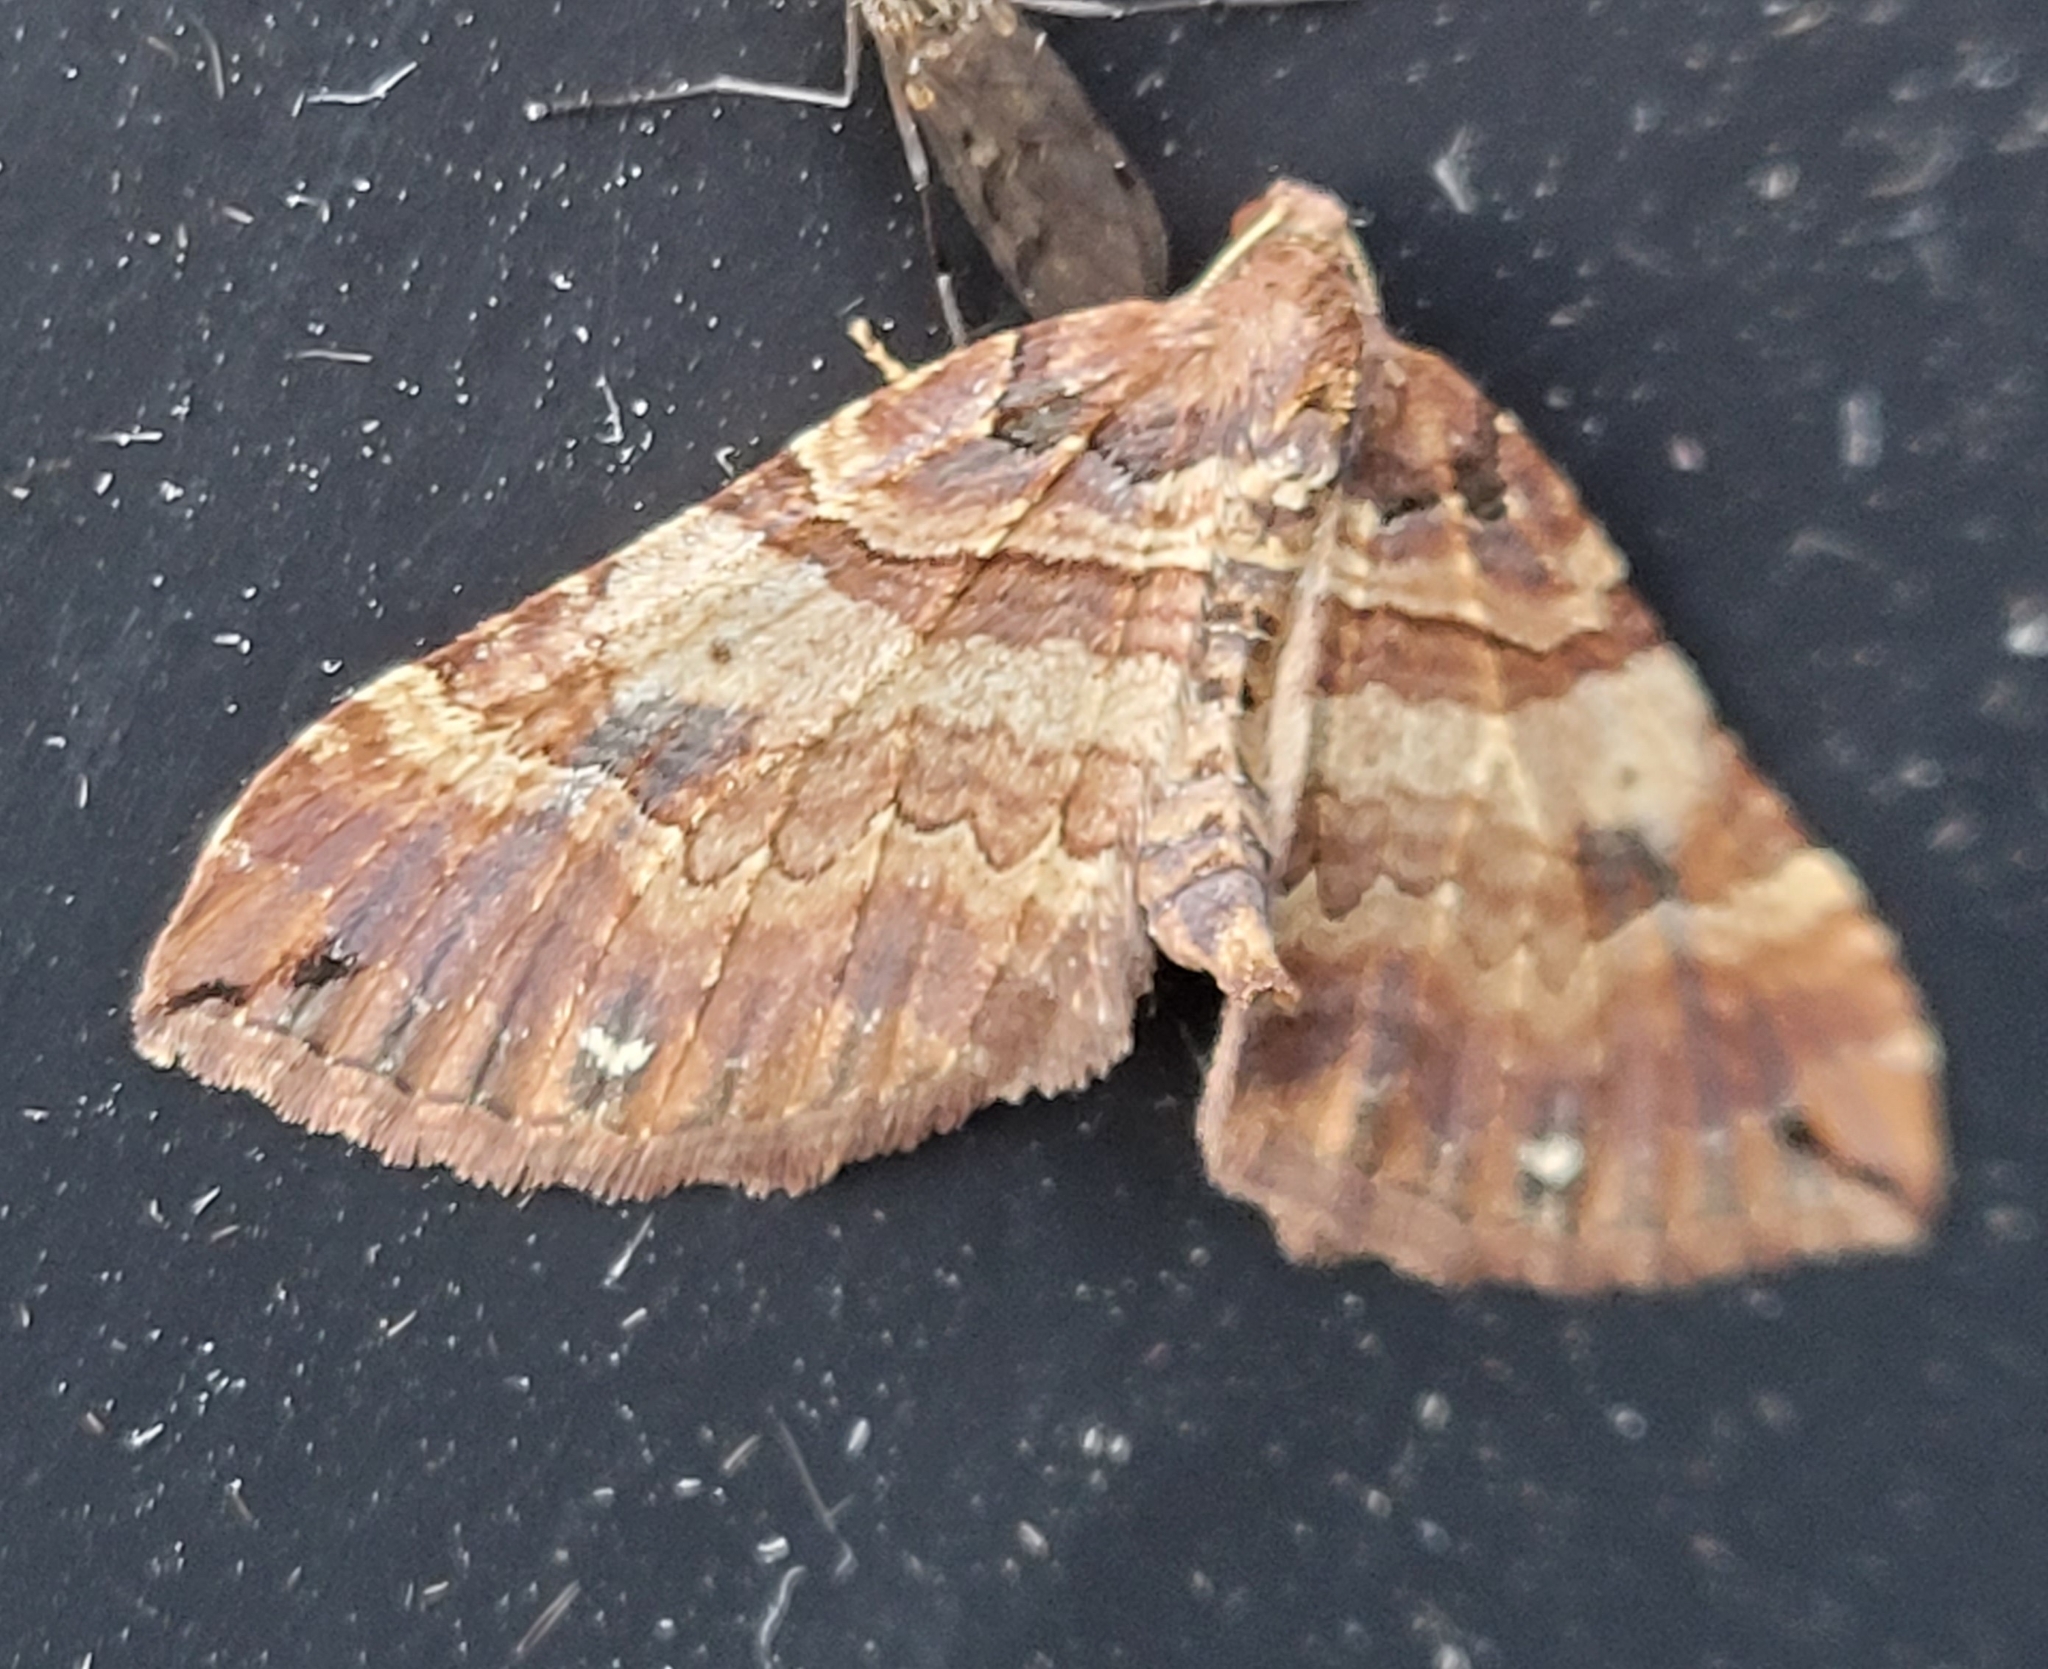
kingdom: Animalia
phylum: Arthropoda
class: Insecta
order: Lepidoptera
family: Geometridae
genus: Anticlea
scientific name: Anticlea badiata
